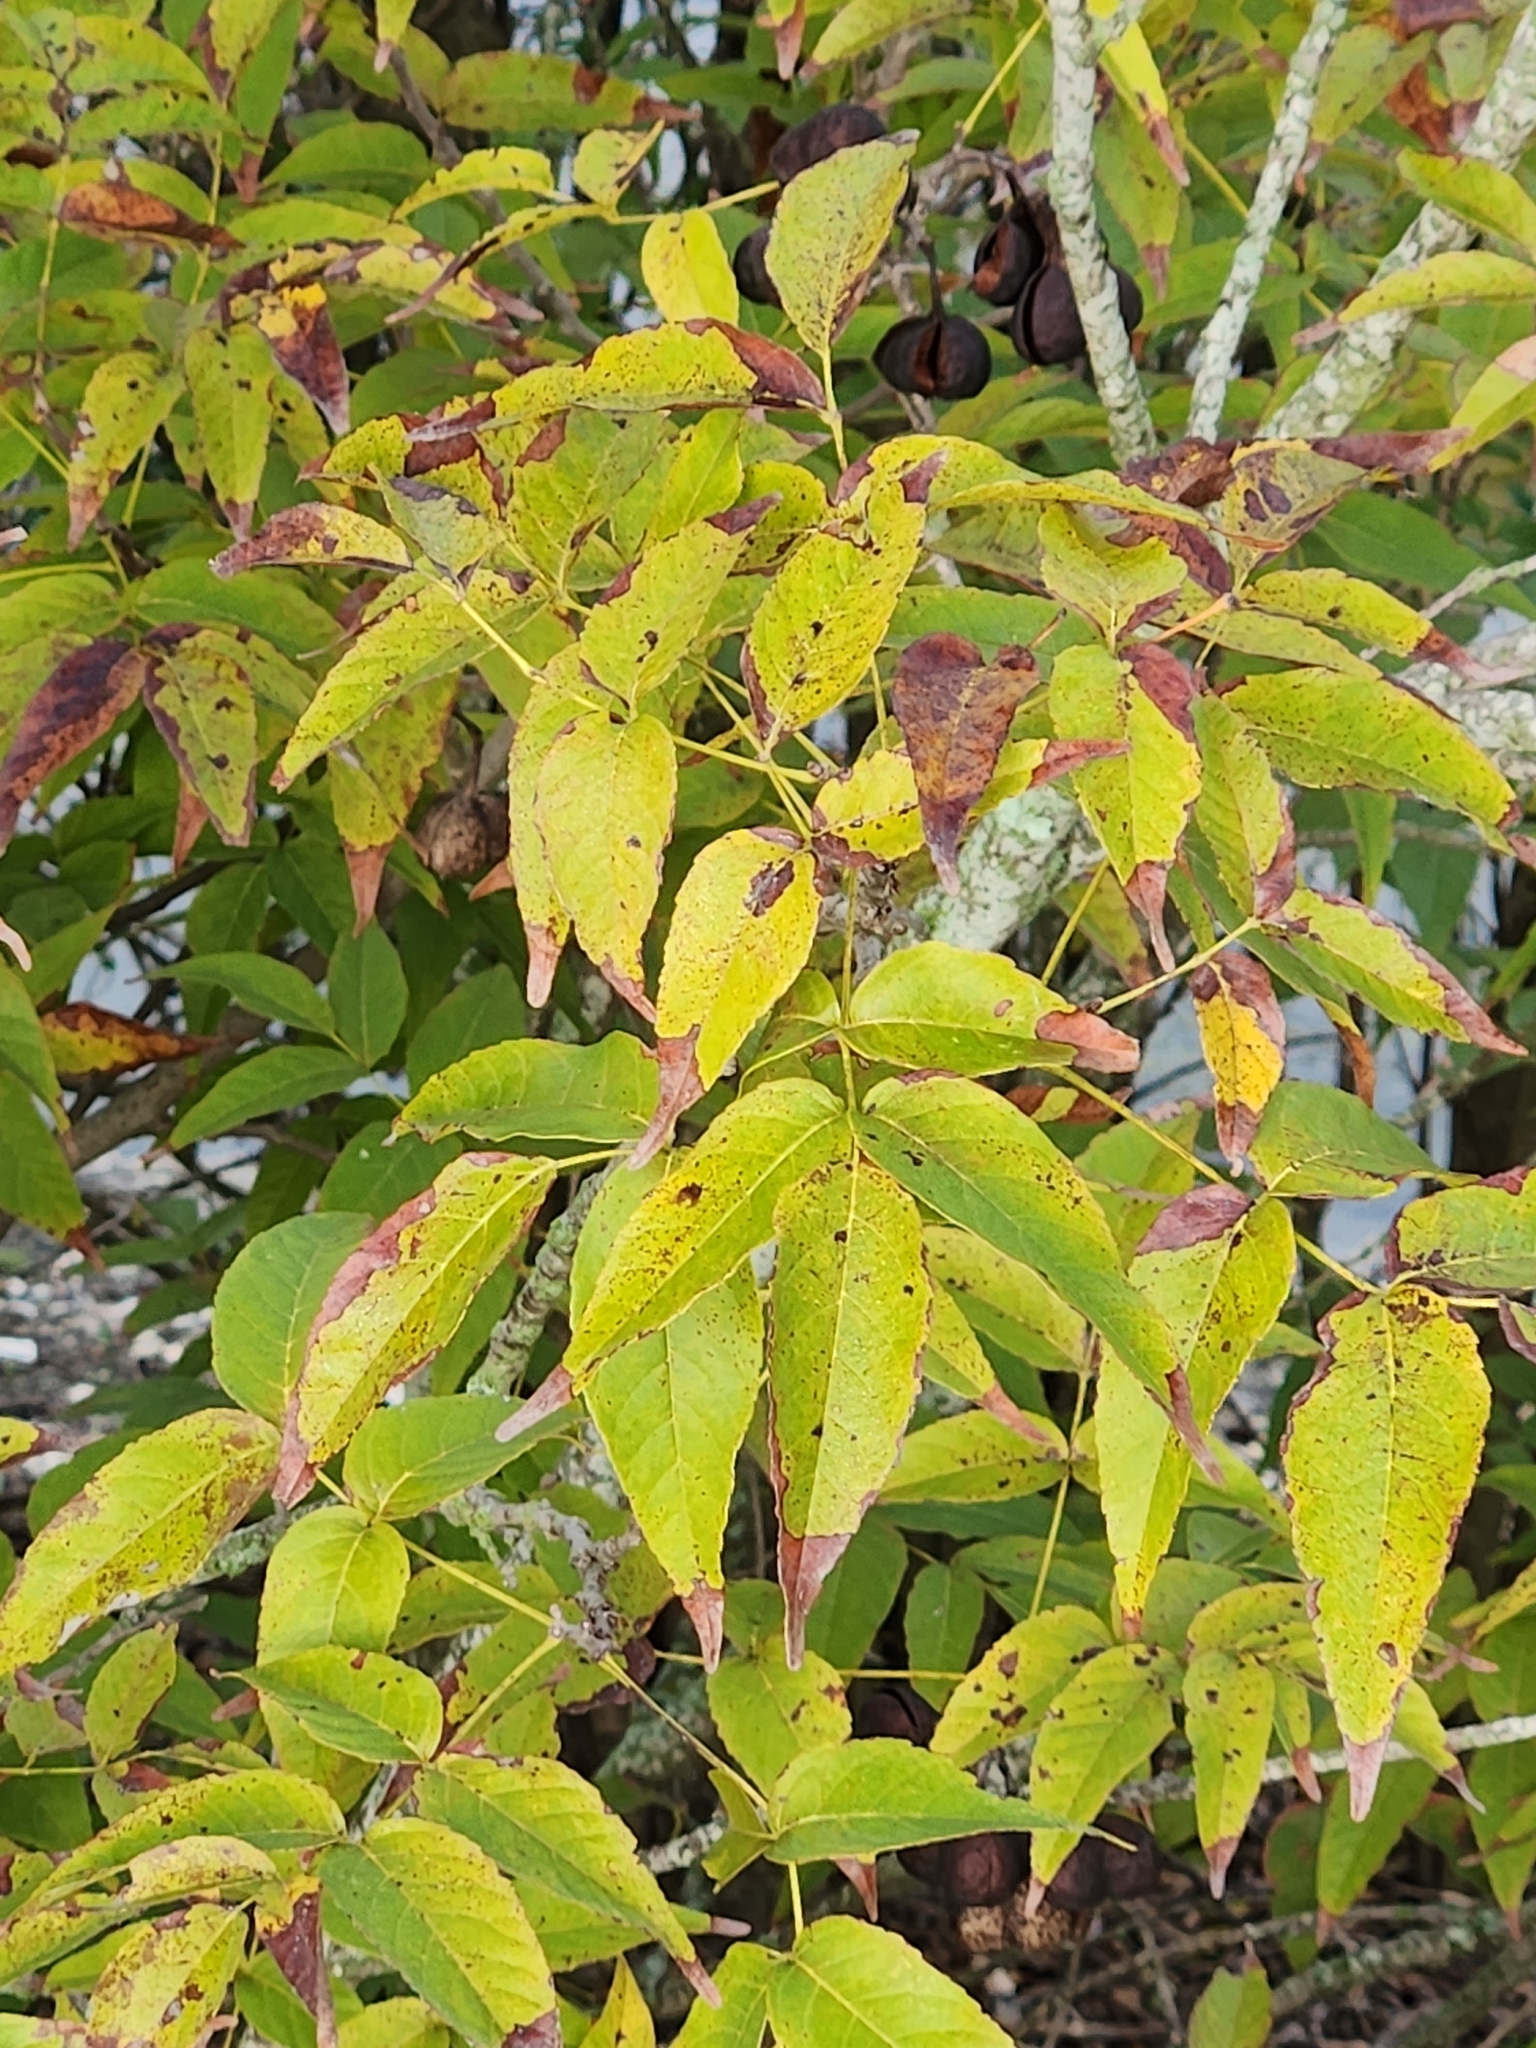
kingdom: Plantae
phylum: Tracheophyta
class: Magnoliopsida
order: Sapindales
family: Sapindaceae
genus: Ungnadia
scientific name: Ungnadia speciosa
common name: Texas-buckeye
